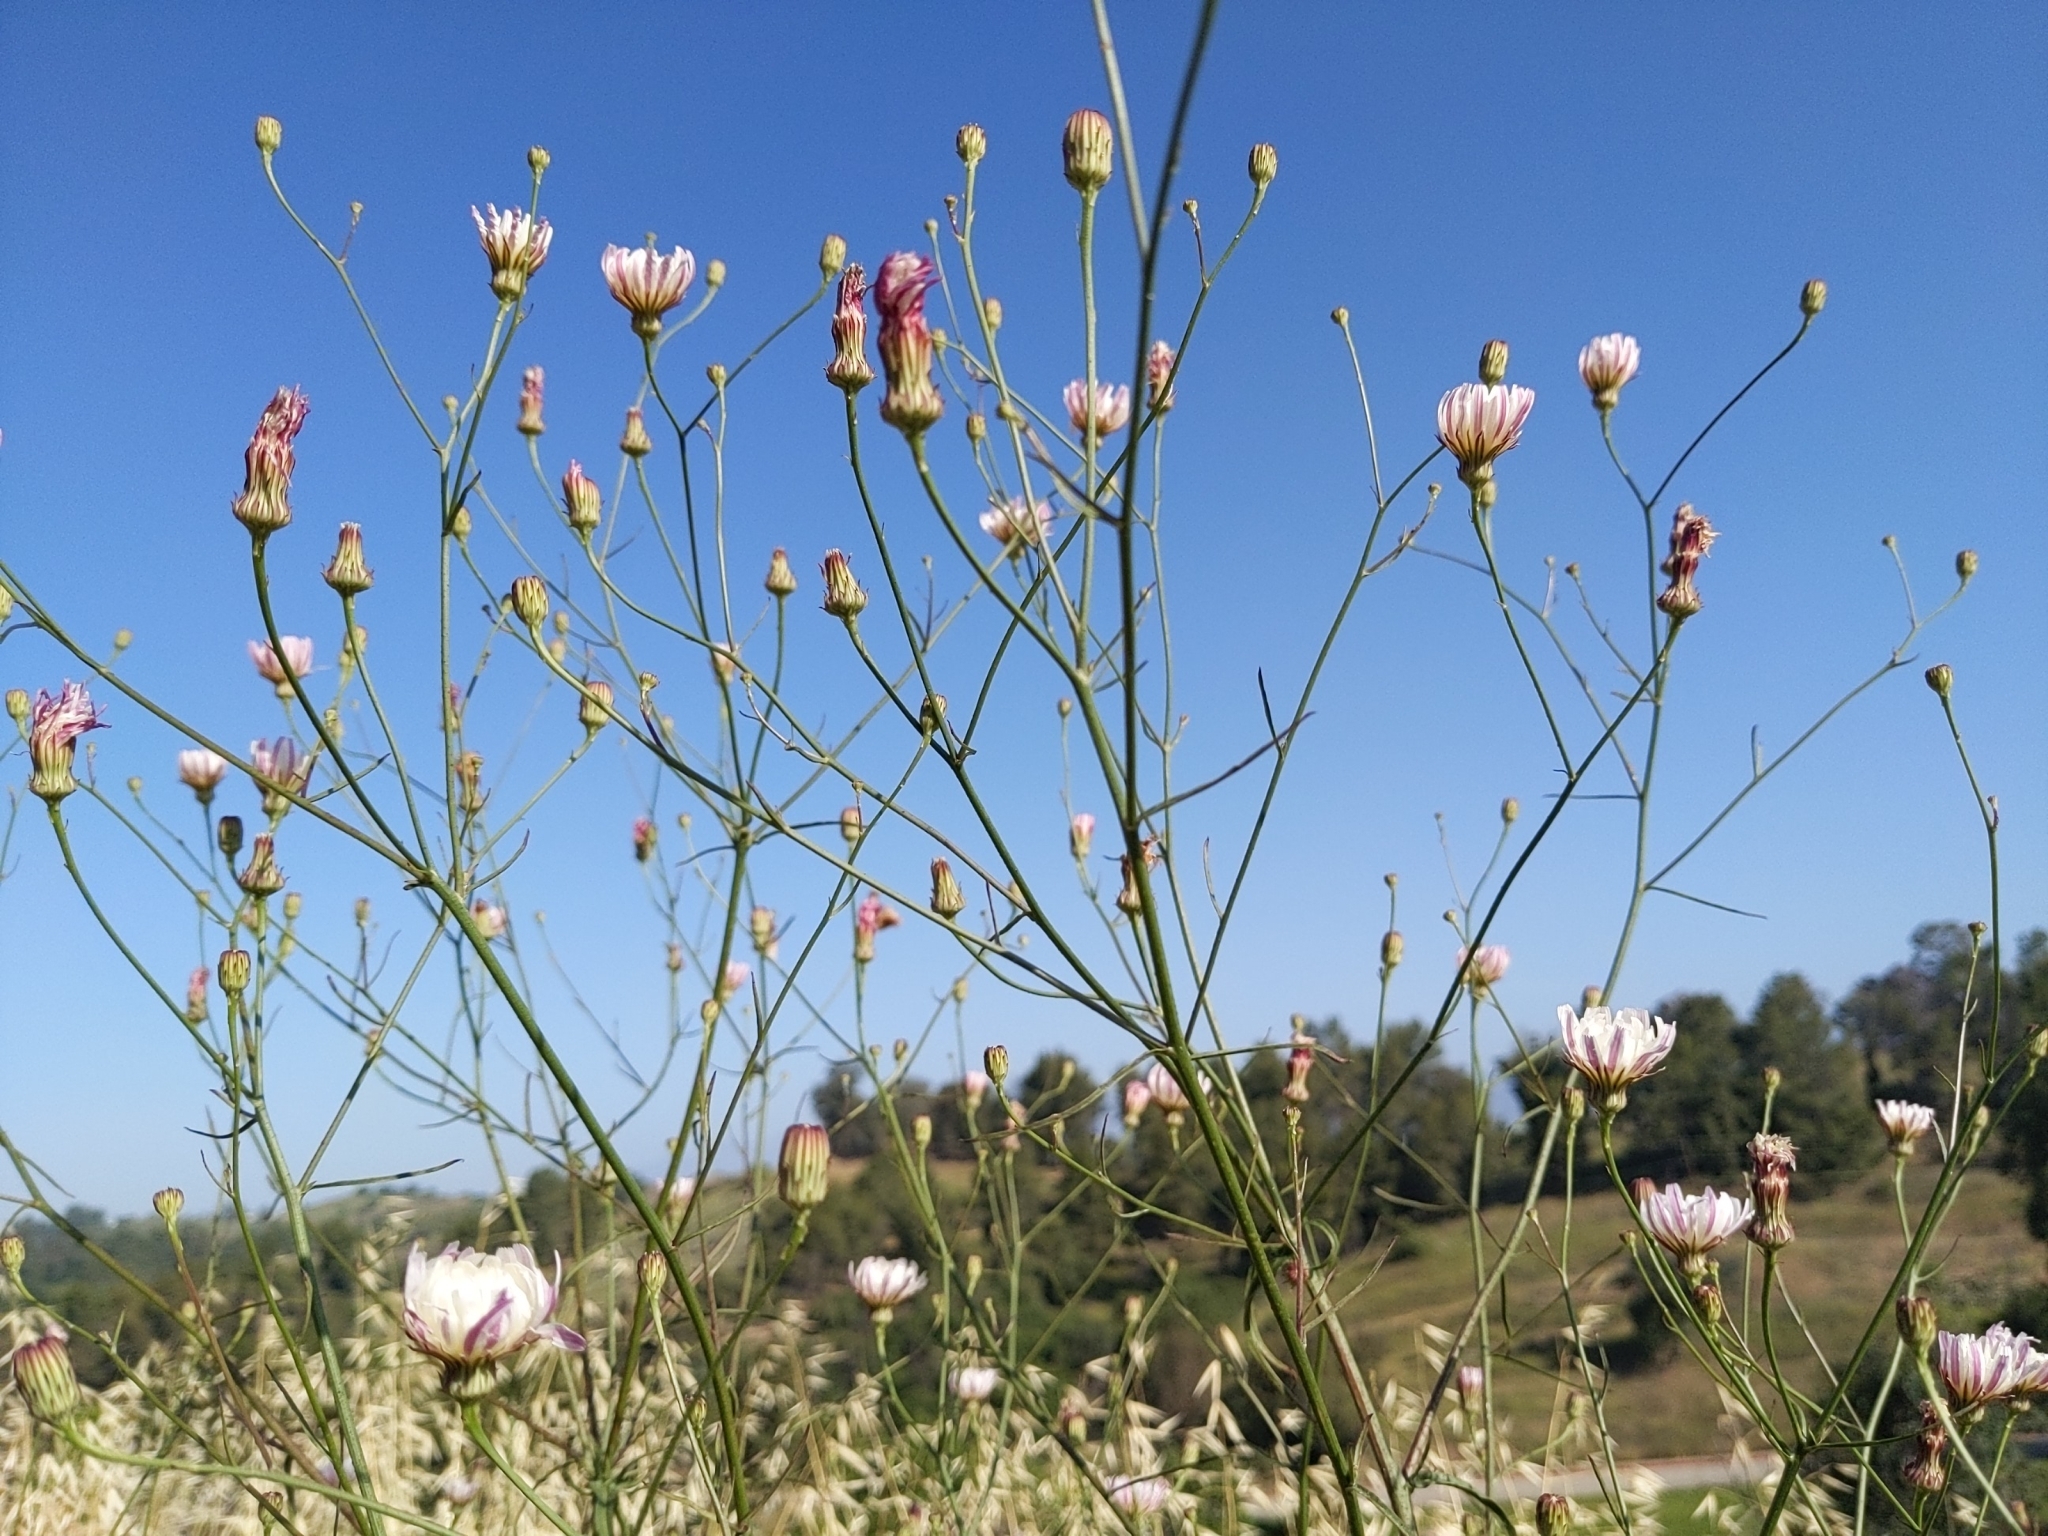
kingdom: Plantae
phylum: Tracheophyta
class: Magnoliopsida
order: Asterales
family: Asteraceae
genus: Malacothrix
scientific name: Malacothrix saxatilis
